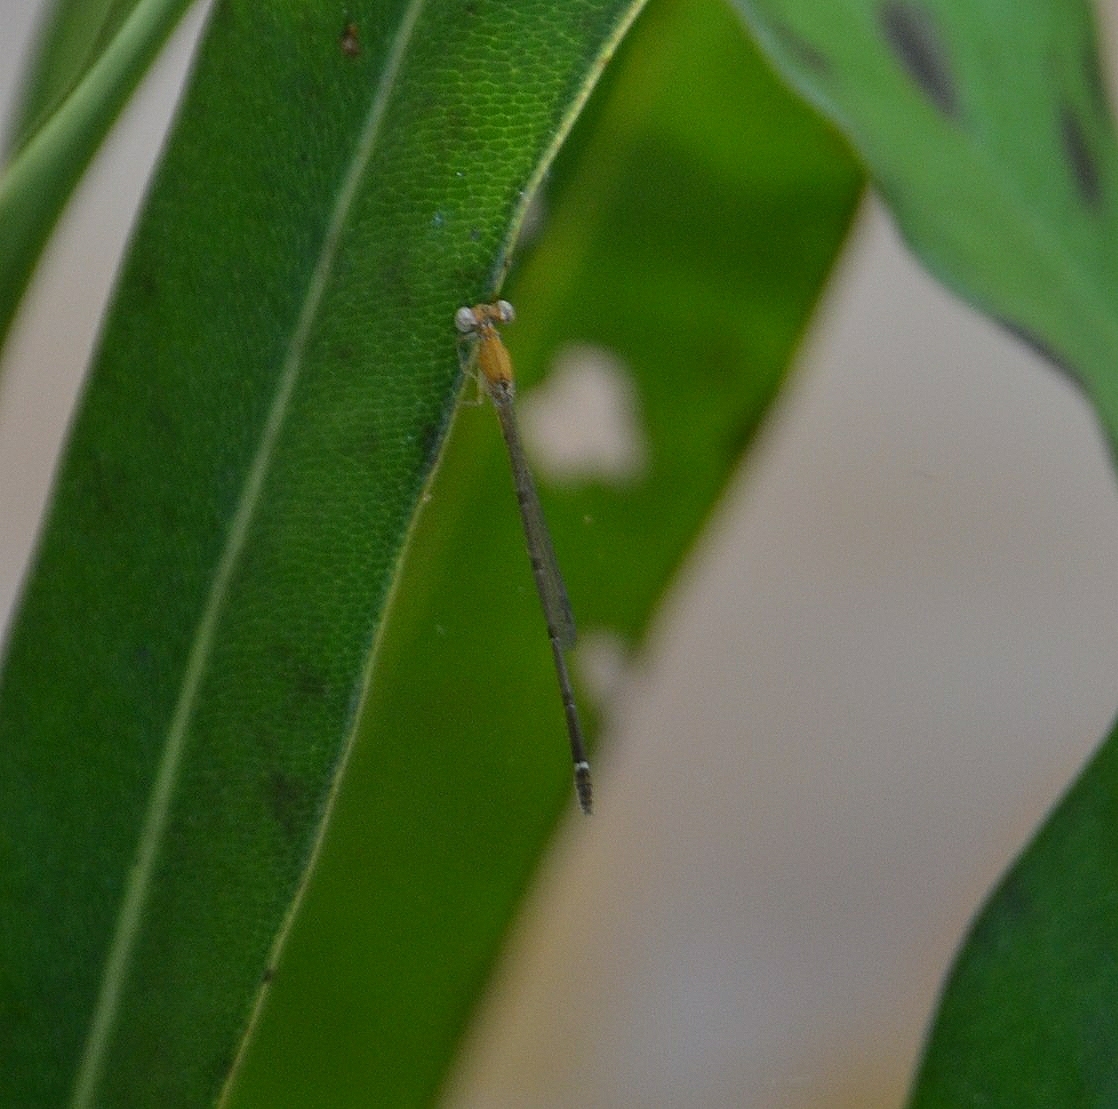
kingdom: Animalia
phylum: Arthropoda
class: Insecta
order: Odonata
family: Coenagrionidae
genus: Mortonagrion
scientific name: Mortonagrion varralli
